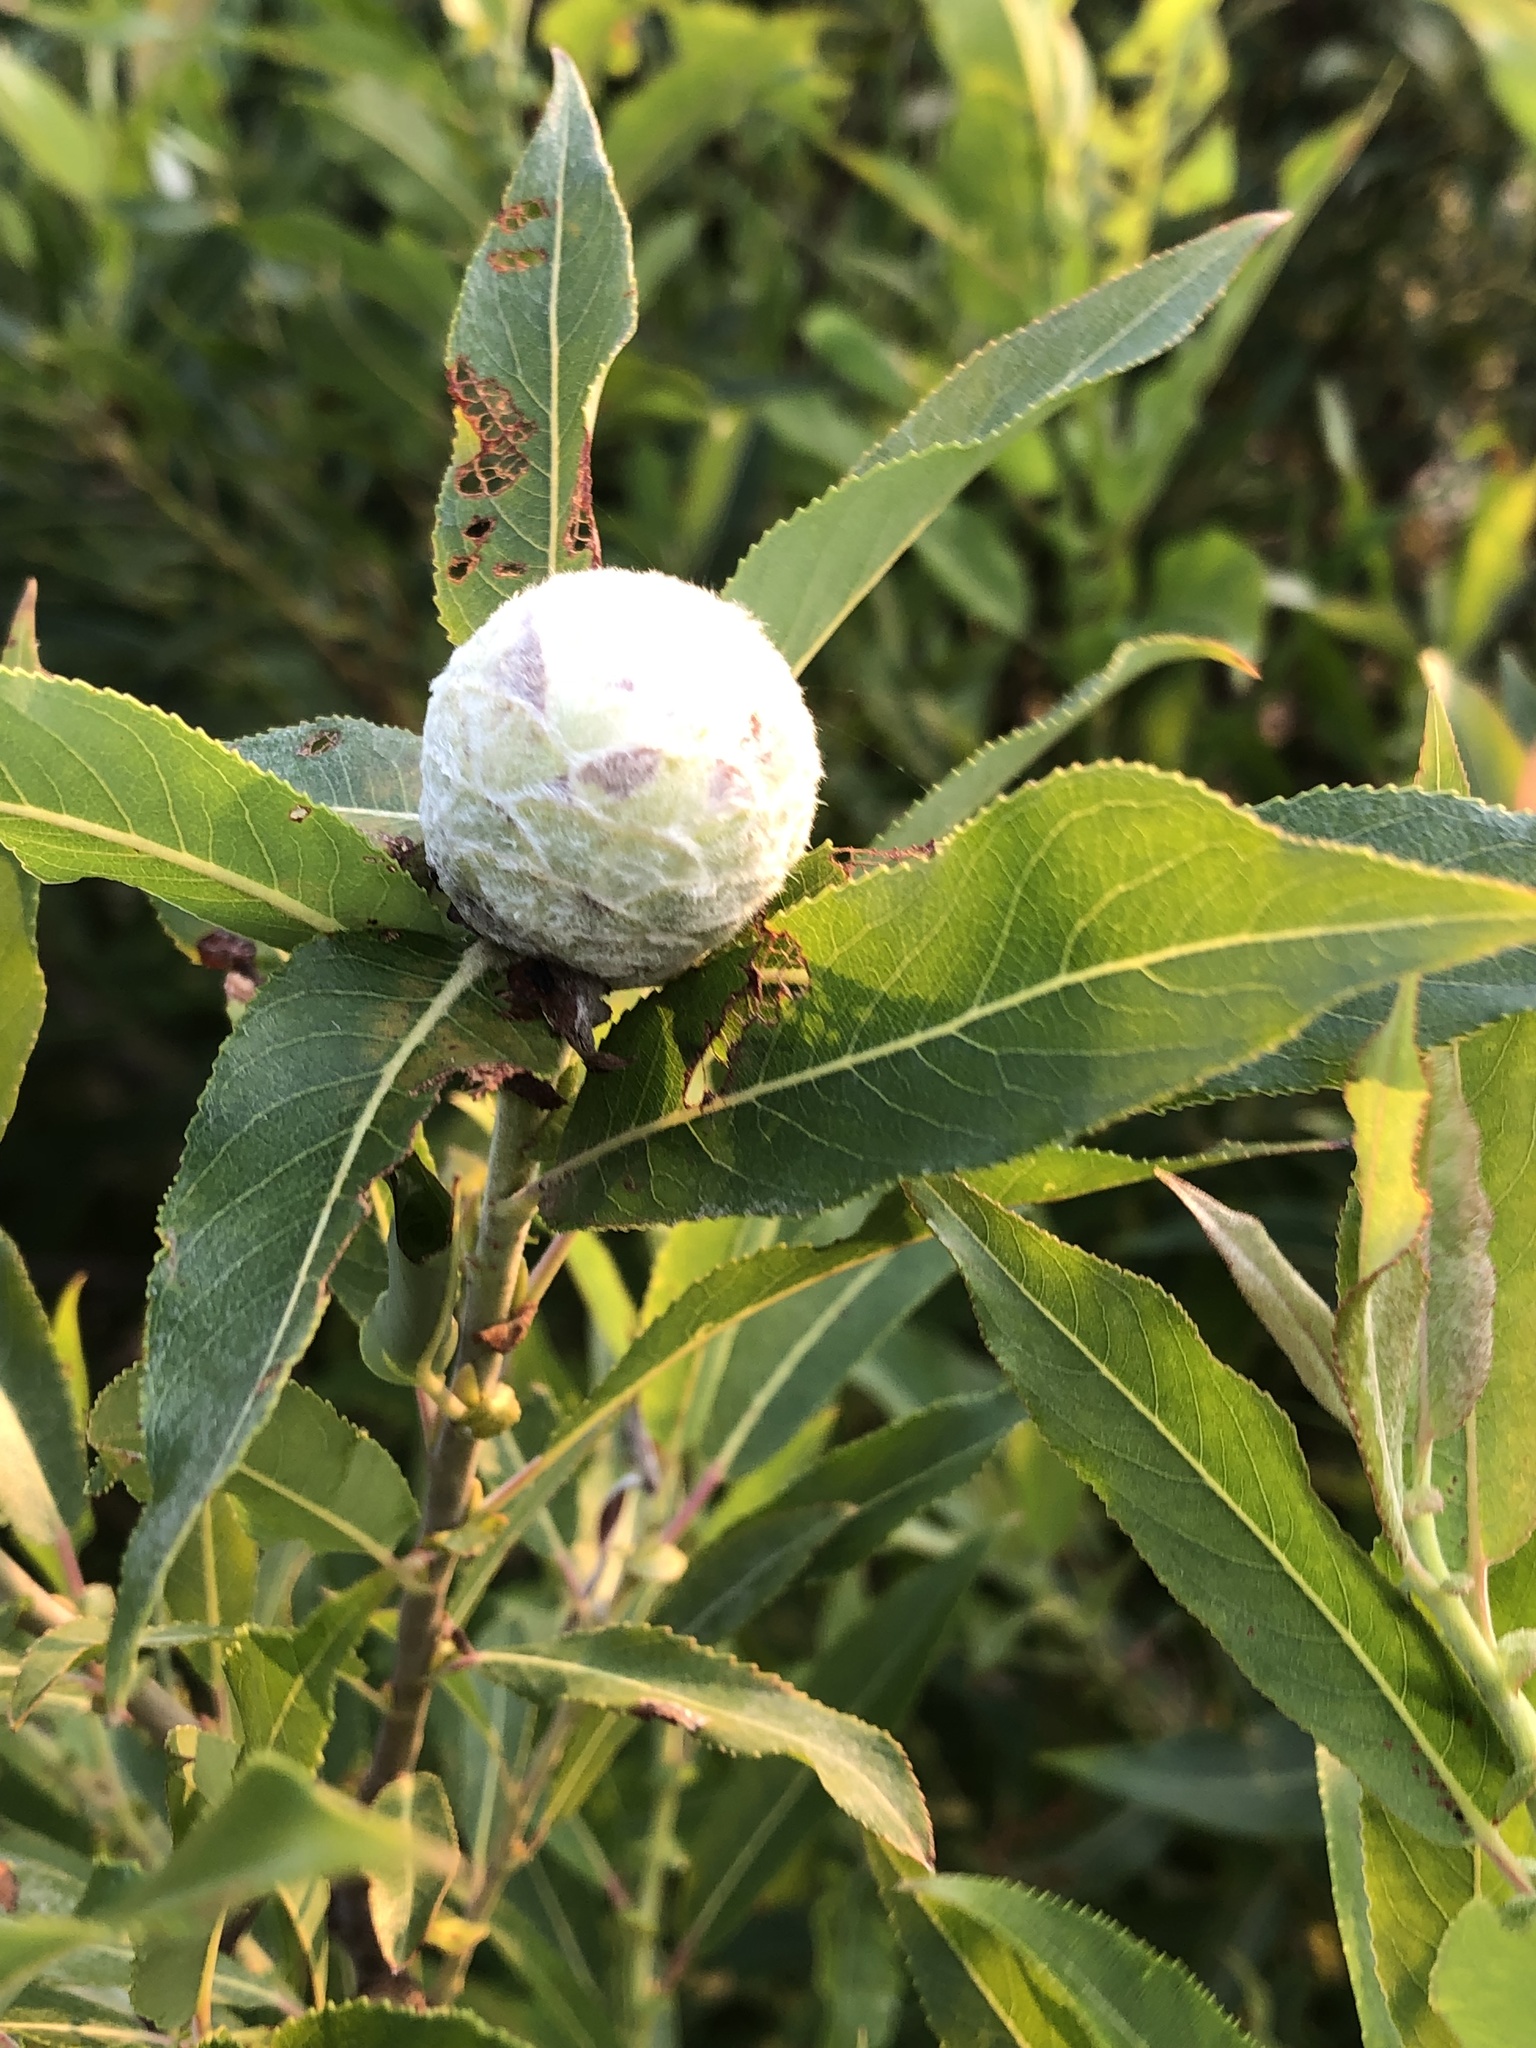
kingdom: Animalia
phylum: Arthropoda
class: Insecta
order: Diptera
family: Cecidomyiidae
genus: Rabdophaga
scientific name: Rabdophaga strobiloides
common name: Willow pinecone gall midge
